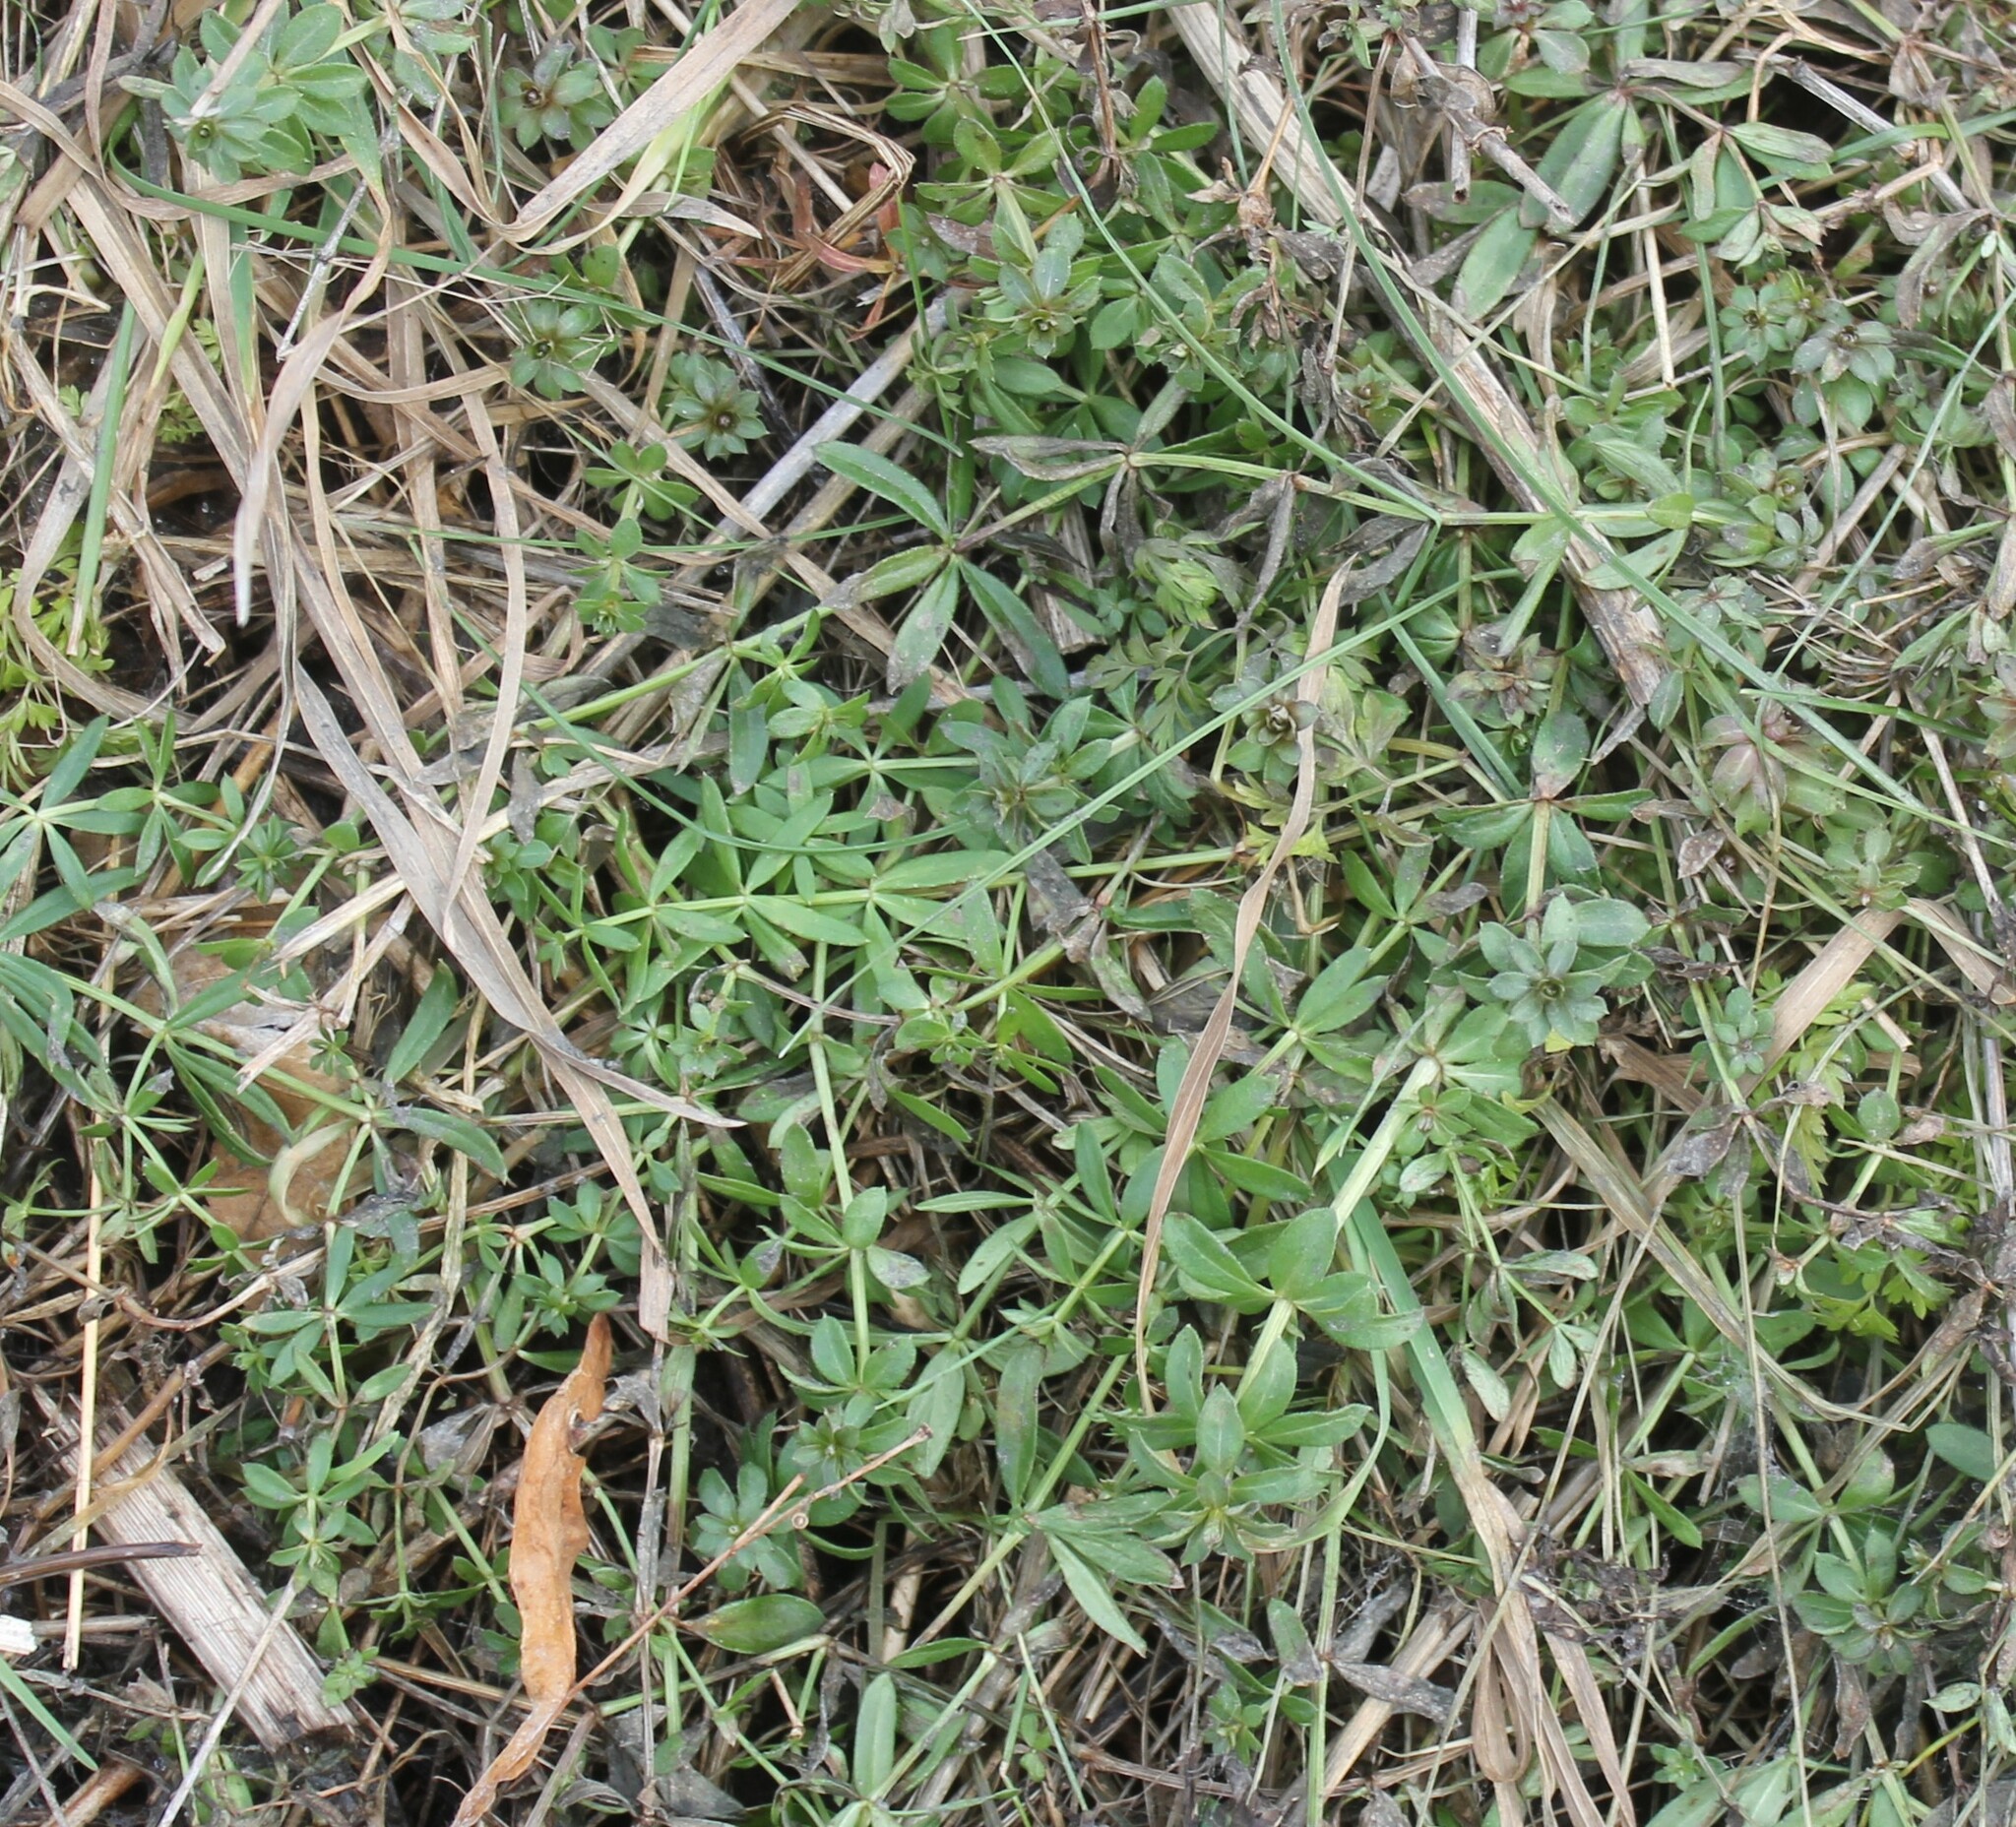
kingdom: Plantae
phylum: Tracheophyta
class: Magnoliopsida
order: Gentianales
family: Rubiaceae
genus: Galium
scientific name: Galium mollugo
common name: Hedge bedstraw
